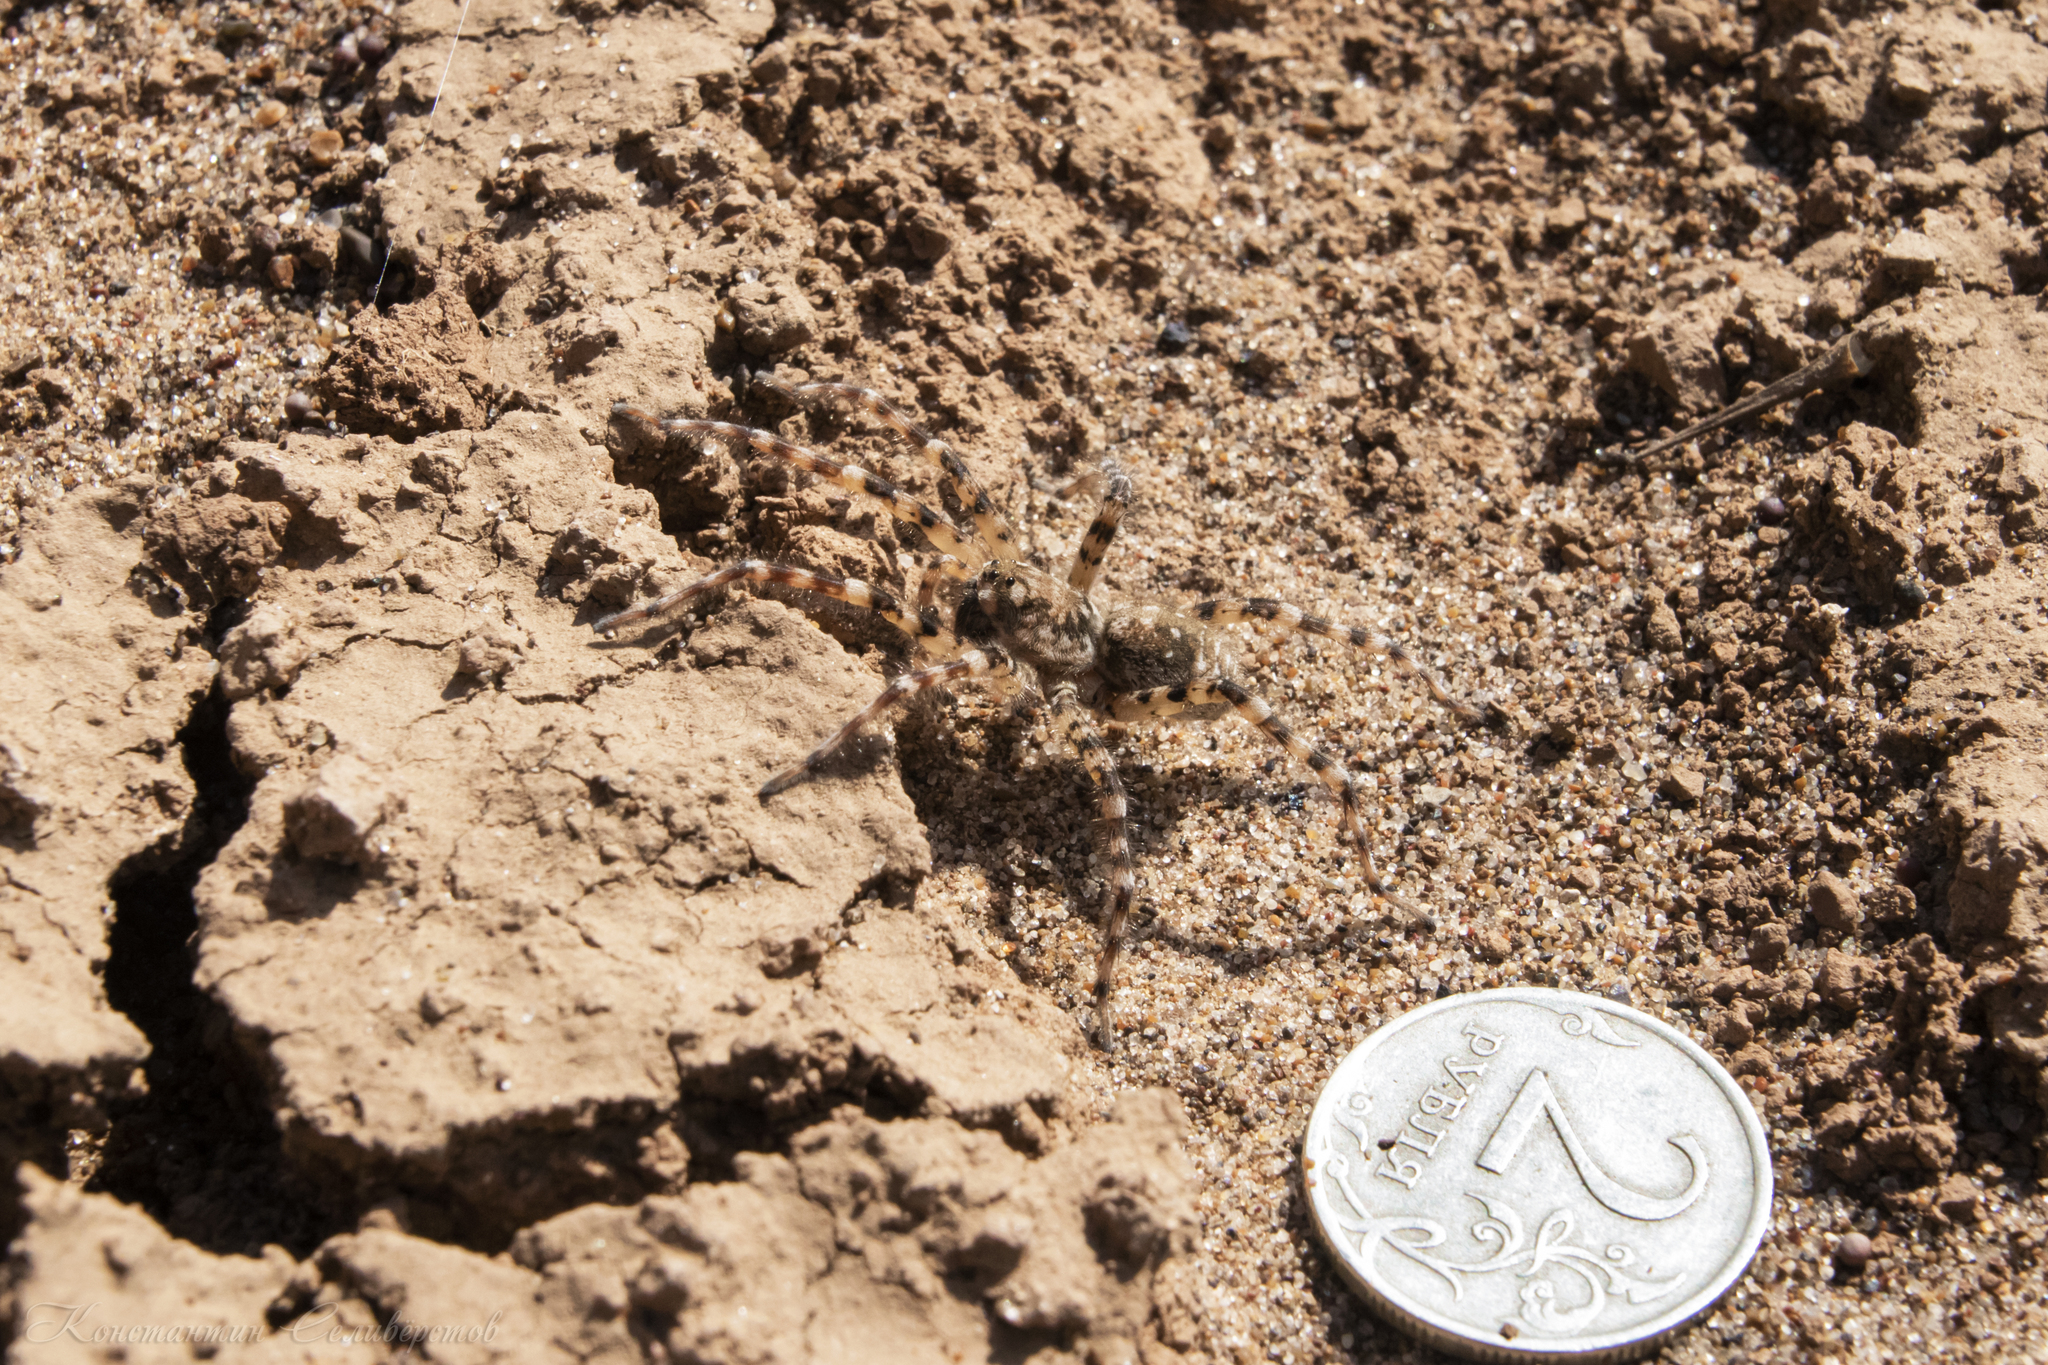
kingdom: Animalia
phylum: Arthropoda
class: Arachnida
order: Araneae
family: Lycosidae
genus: Arctosa
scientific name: Arctosa cinerea
